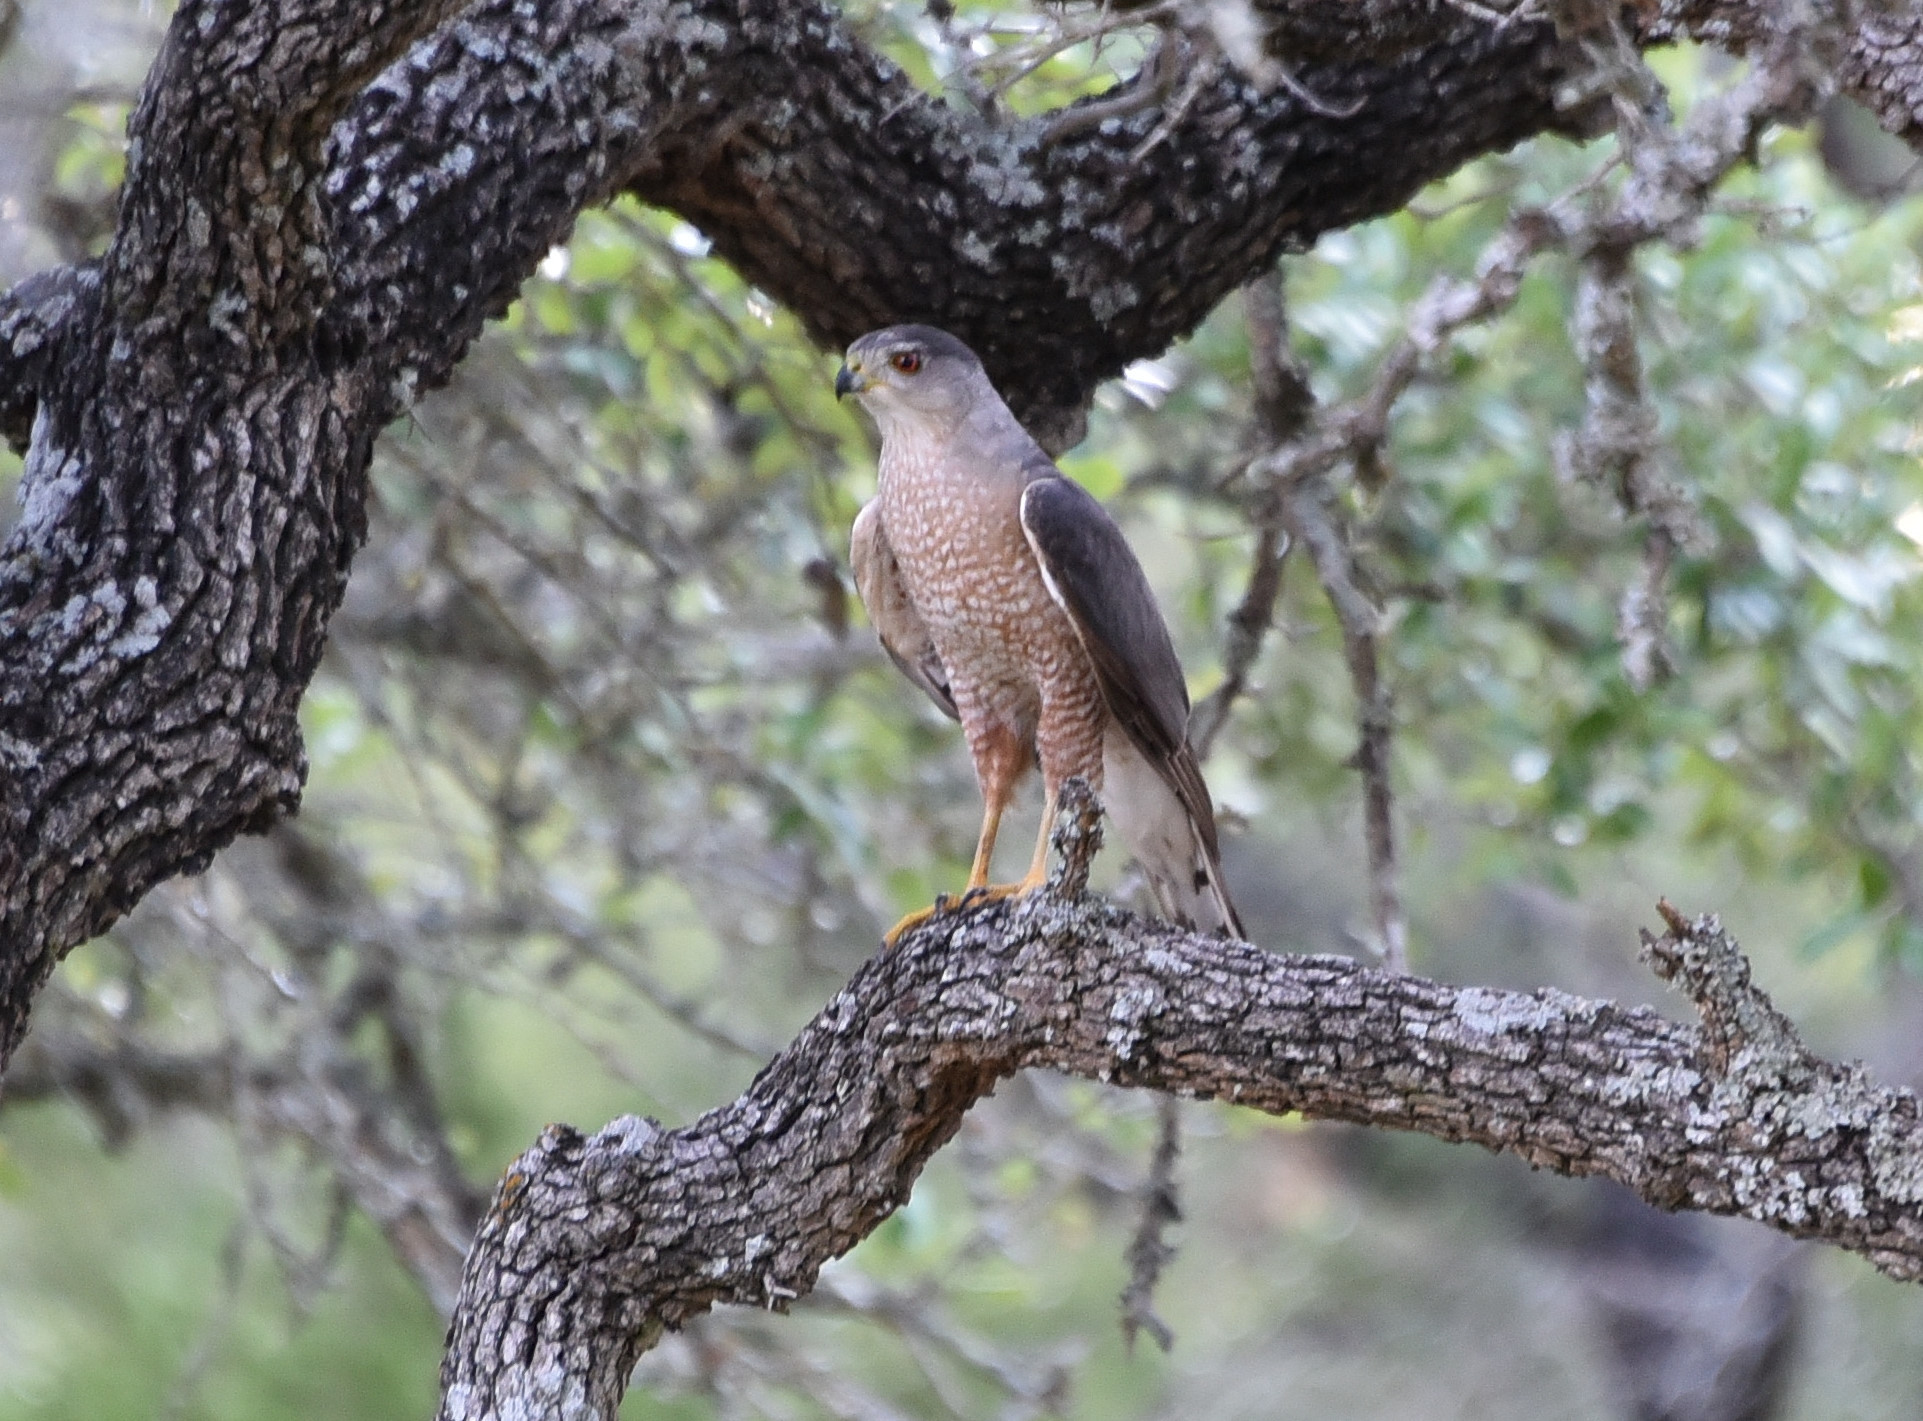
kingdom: Animalia
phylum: Chordata
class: Aves
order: Accipitriformes
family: Accipitridae
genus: Accipiter
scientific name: Accipiter cooperii
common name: Cooper's hawk
